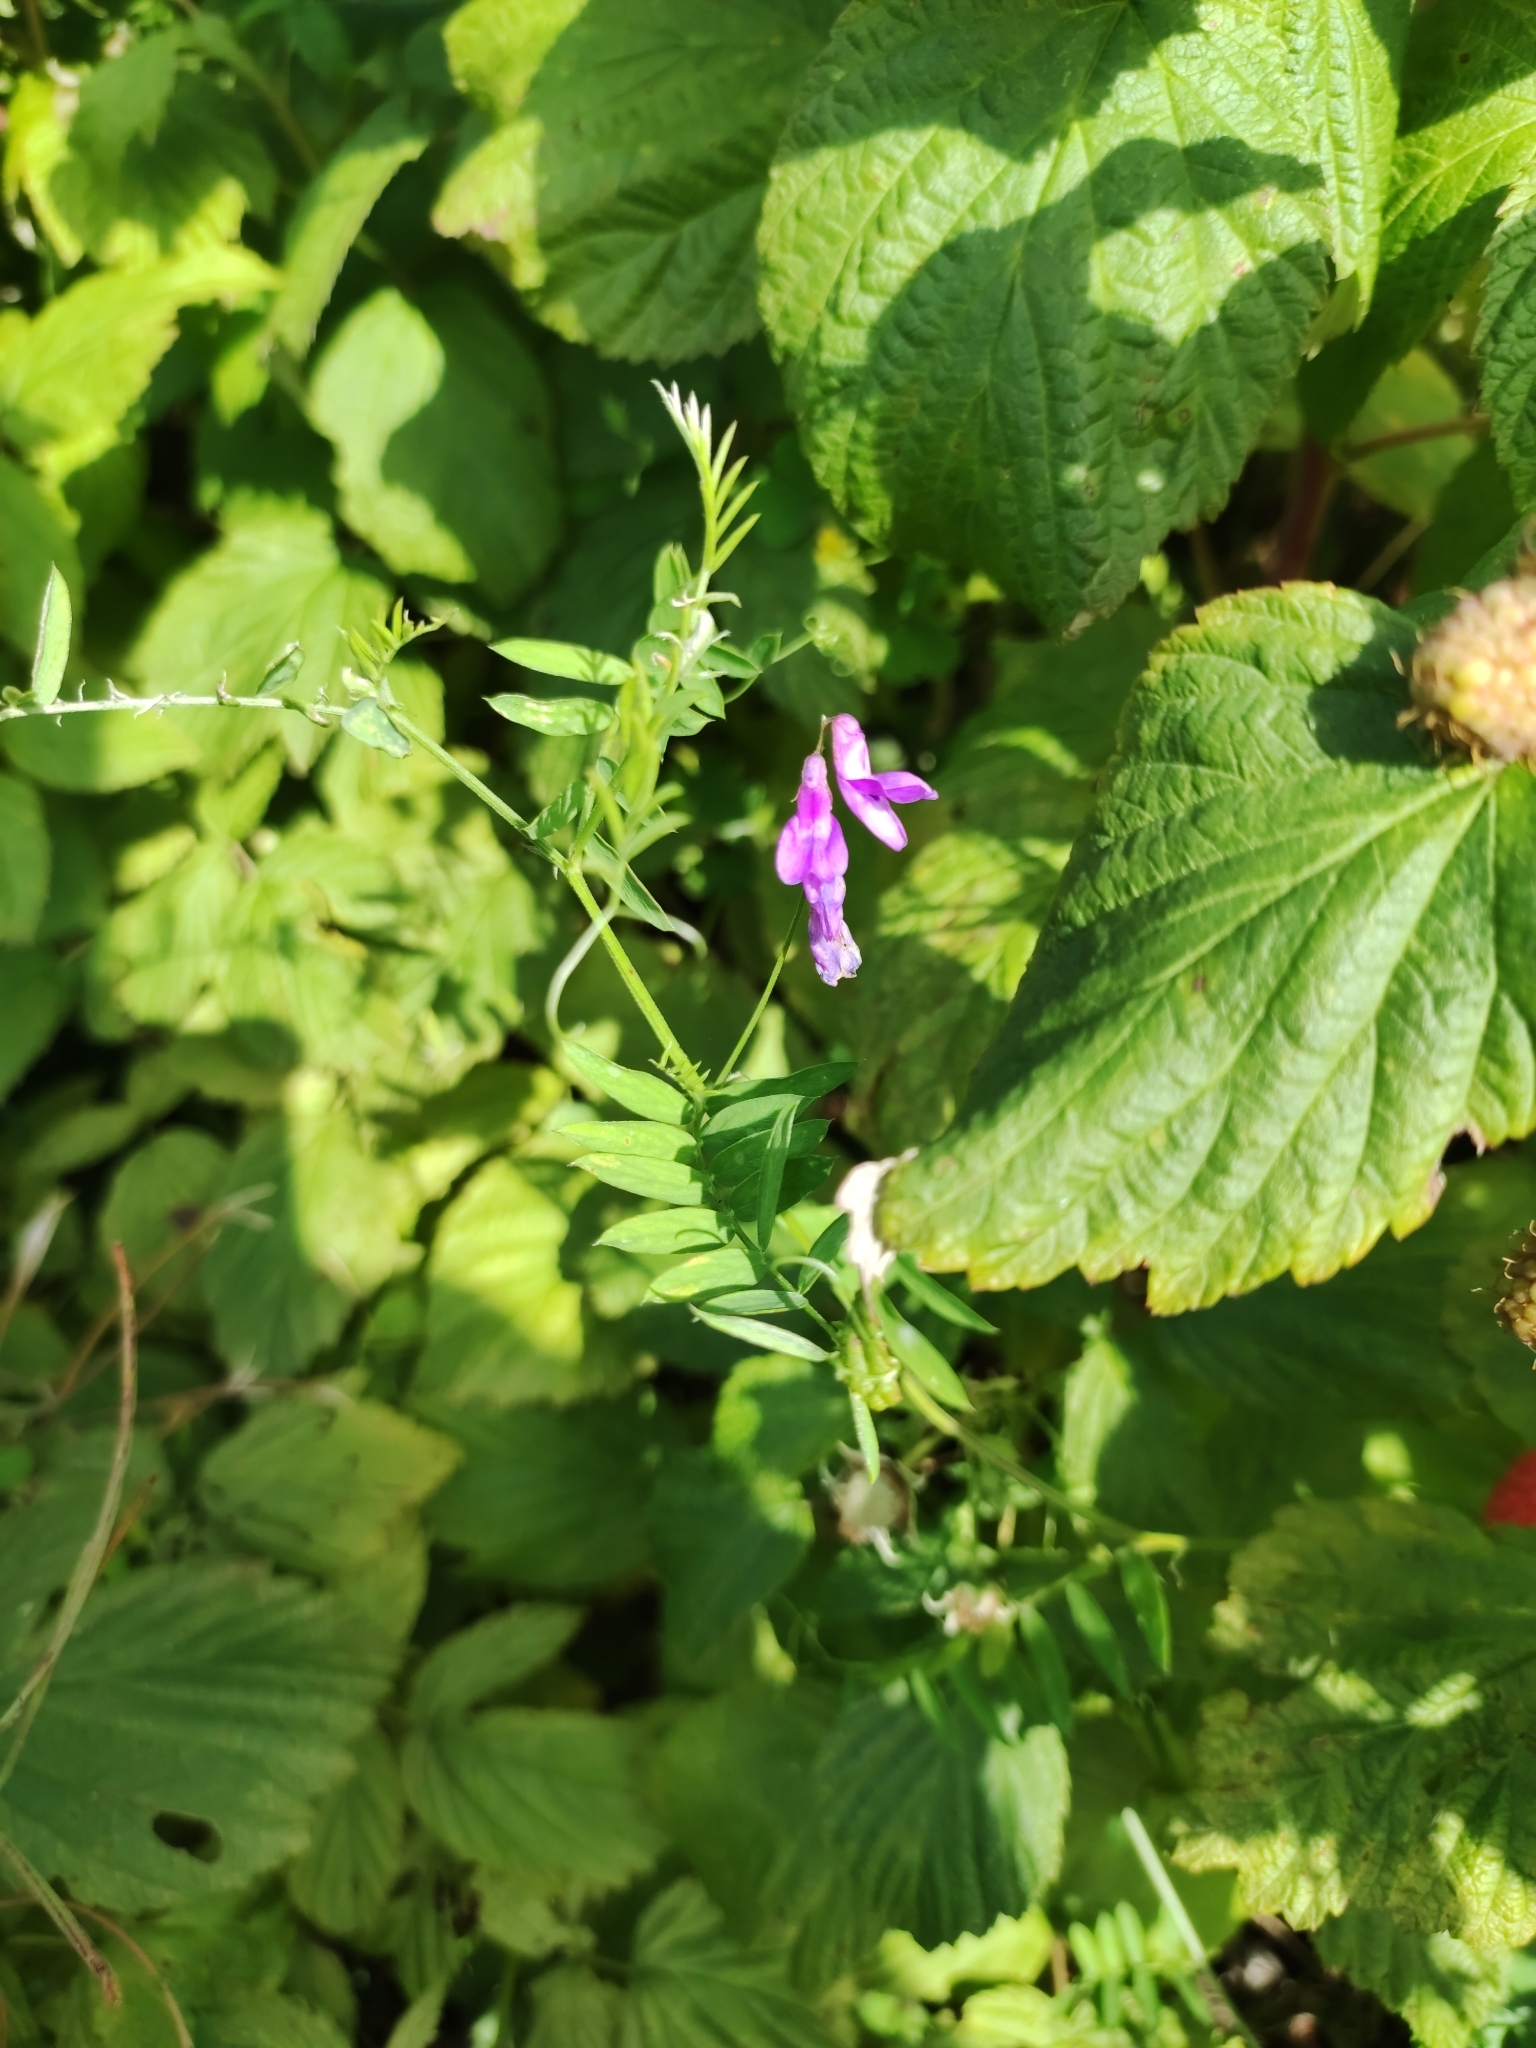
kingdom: Plantae
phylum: Tracheophyta
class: Magnoliopsida
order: Fabales
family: Fabaceae
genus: Vicia
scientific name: Vicia cracca
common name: Bird vetch
